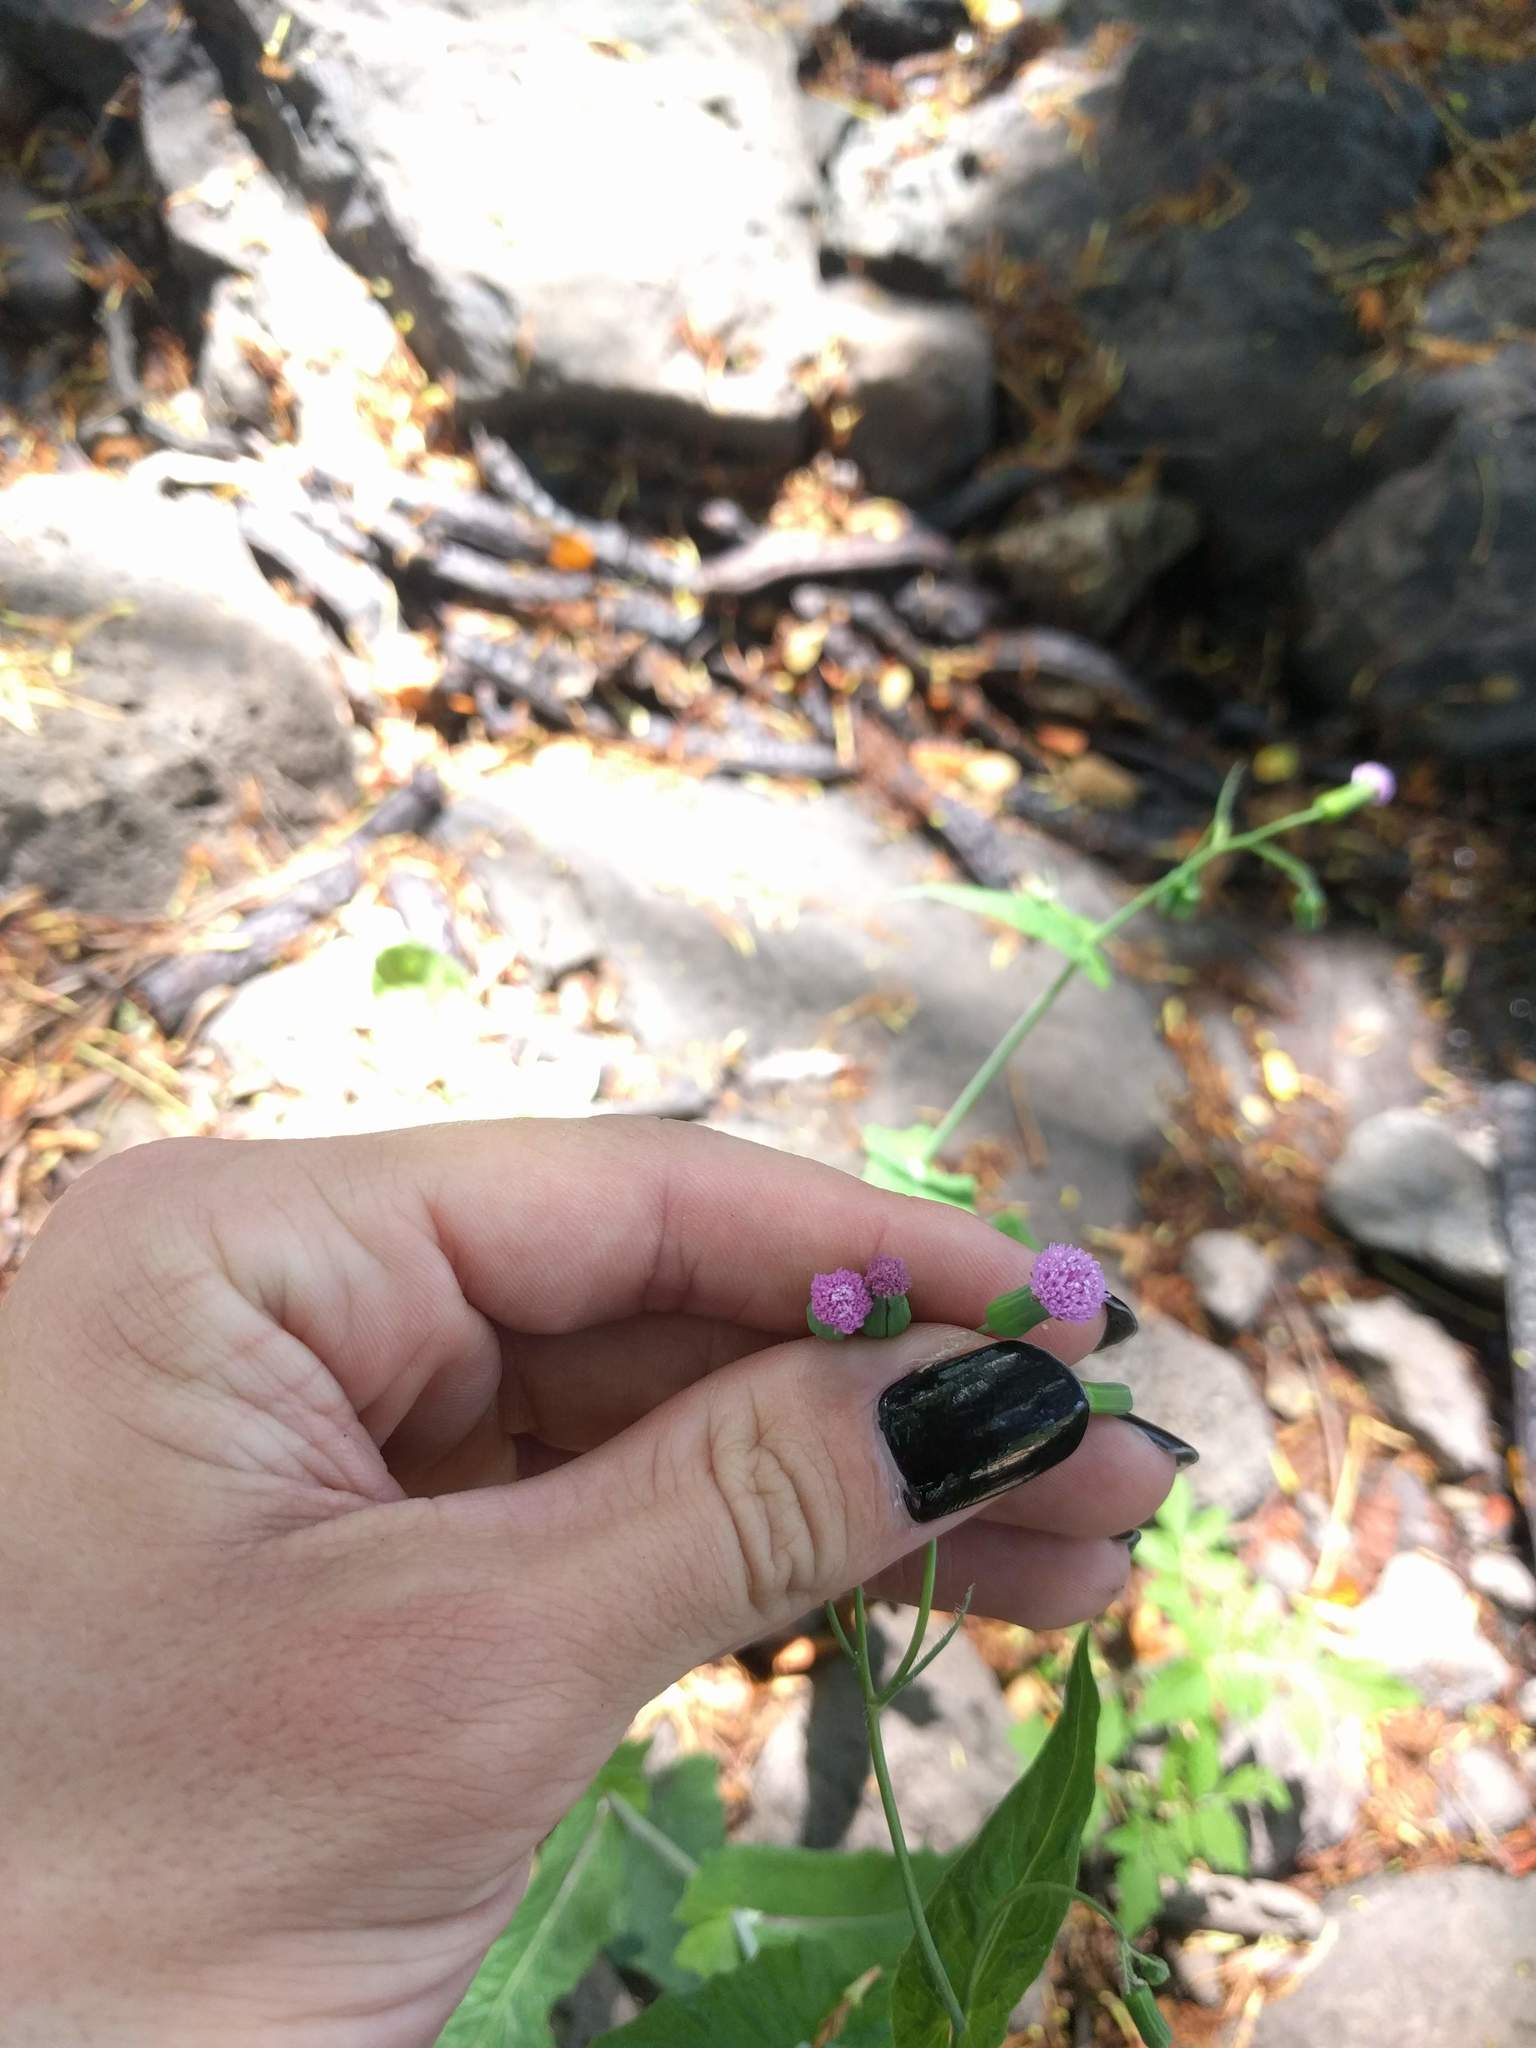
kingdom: Plantae
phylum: Tracheophyta
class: Magnoliopsida
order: Asterales
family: Asteraceae
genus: Emilia
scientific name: Emilia sonchifolia
